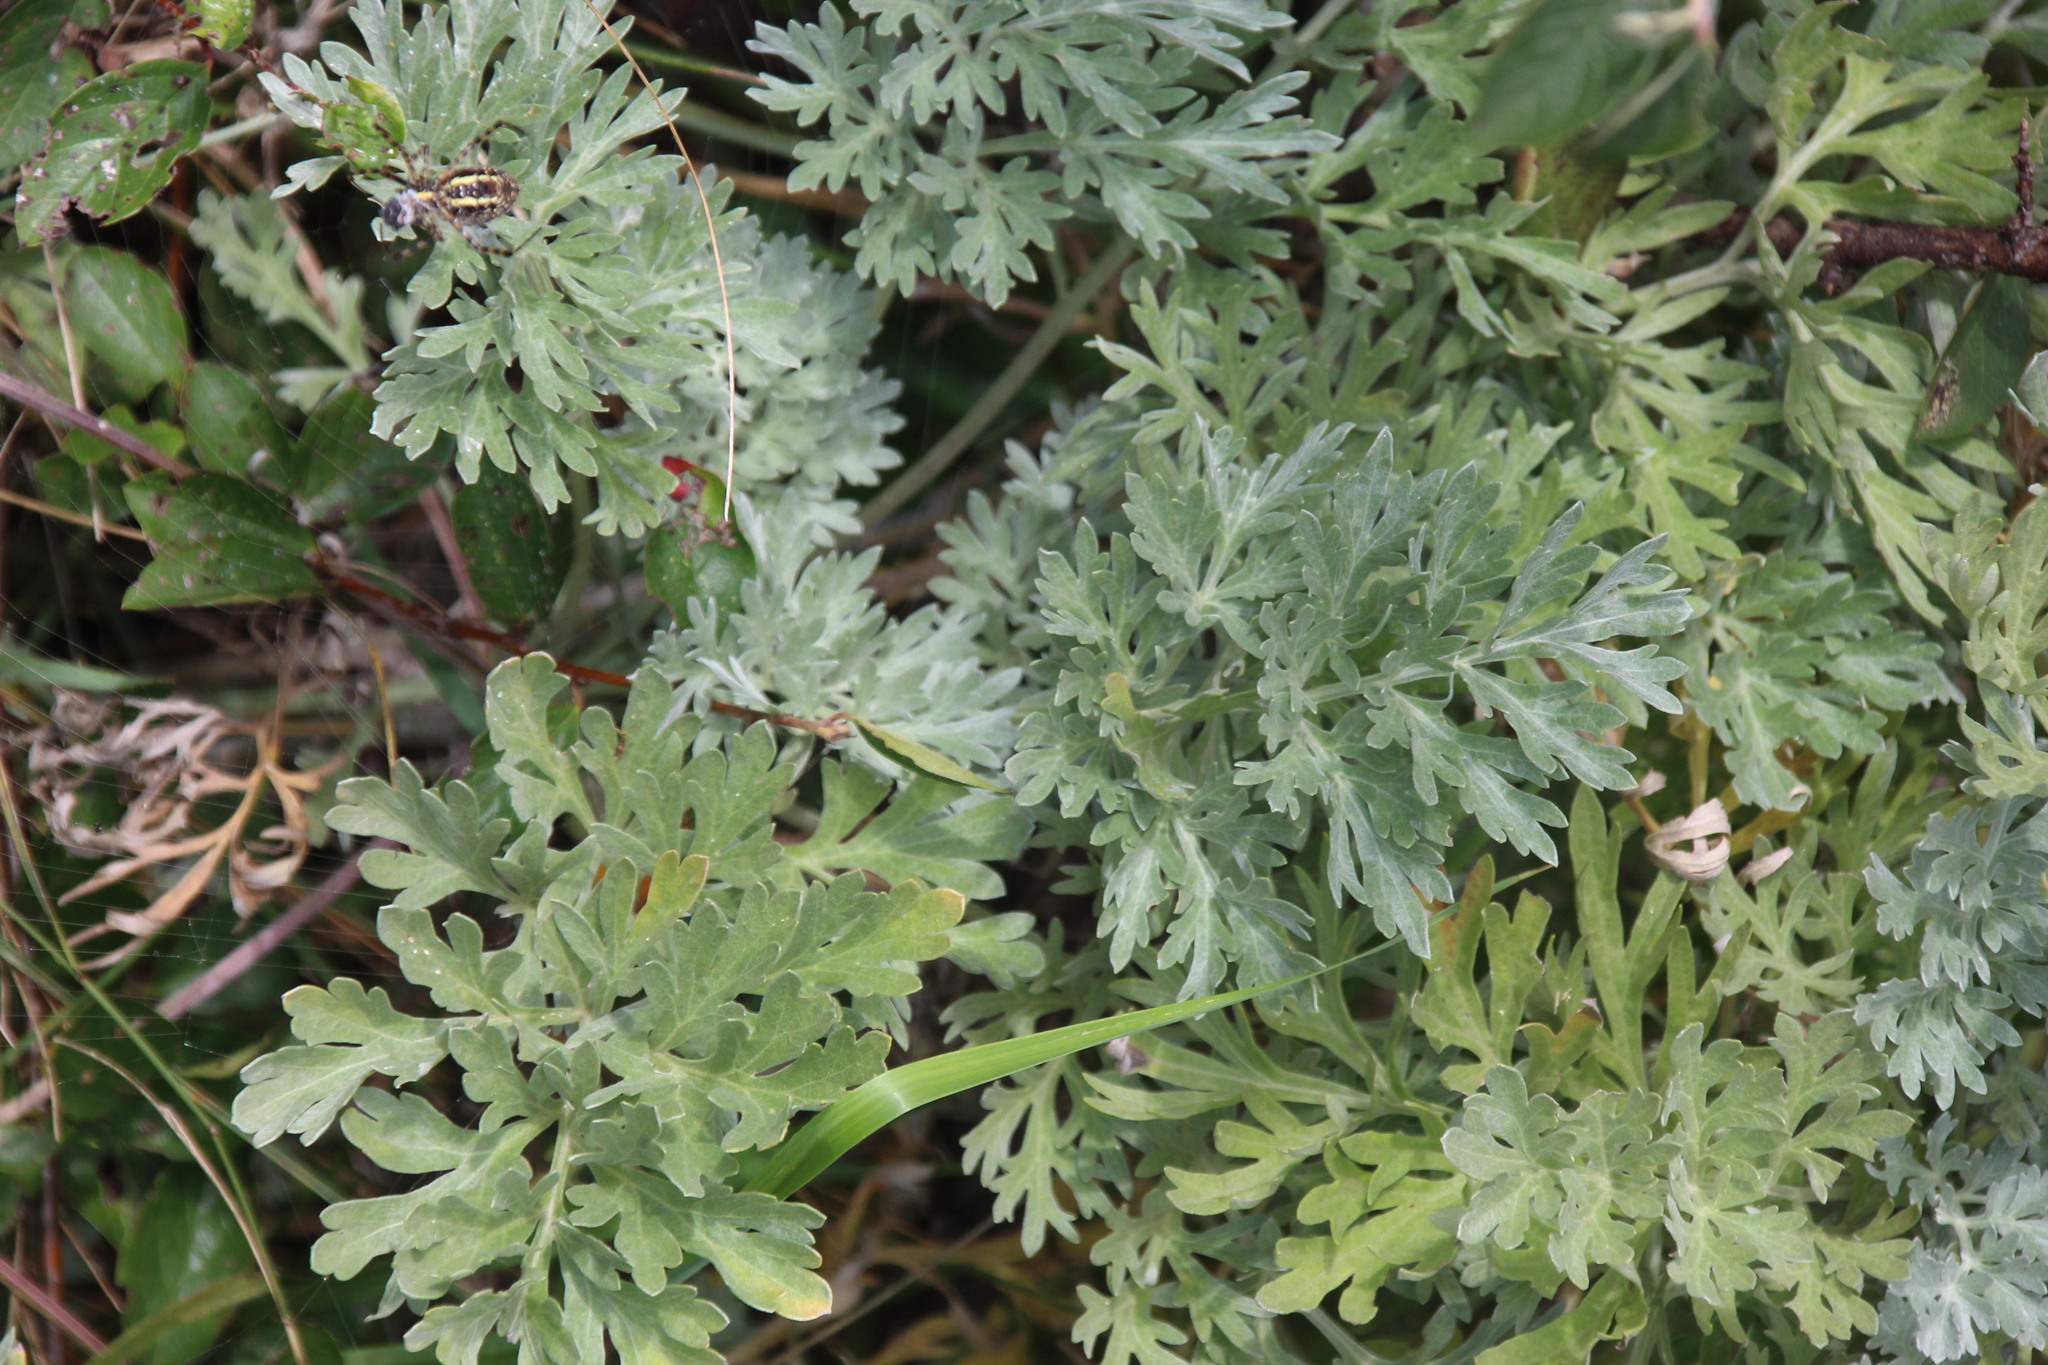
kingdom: Plantae
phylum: Tracheophyta
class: Magnoliopsida
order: Asterales
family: Asteraceae
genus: Artemisia
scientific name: Artemisia absinthium
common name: Wormwood
